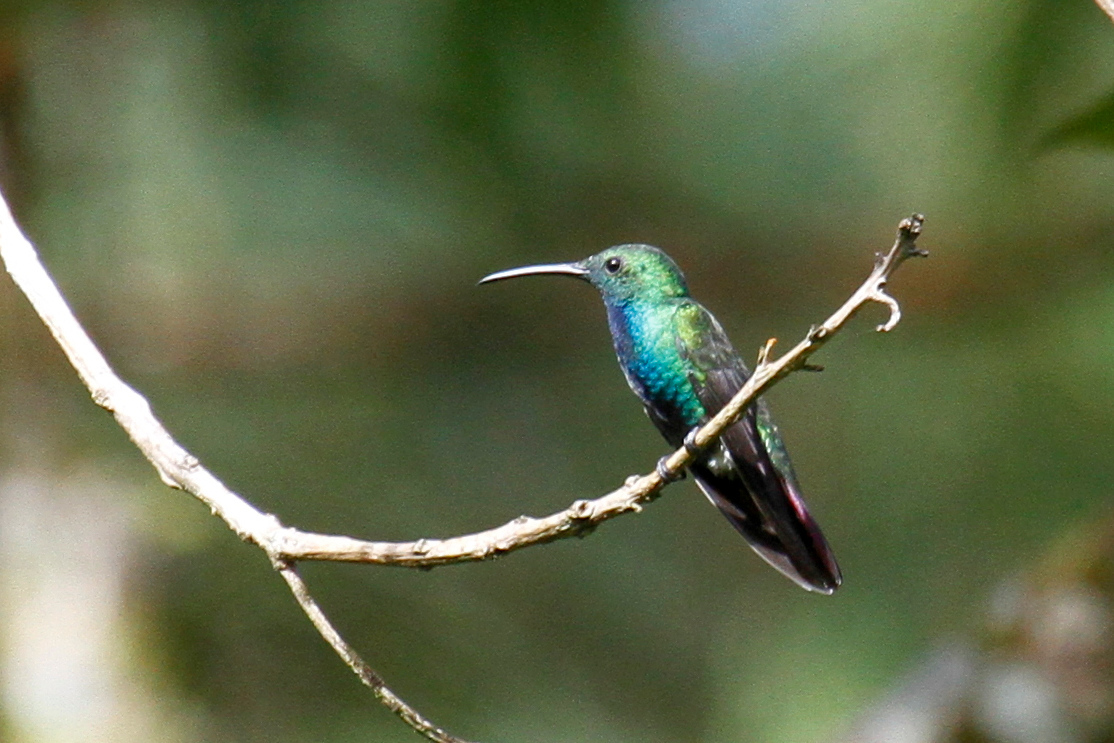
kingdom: Animalia
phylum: Chordata
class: Aves
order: Apodiformes
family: Trochilidae
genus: Anthracothorax
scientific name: Anthracothorax prevostii
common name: Green-breasted mango
